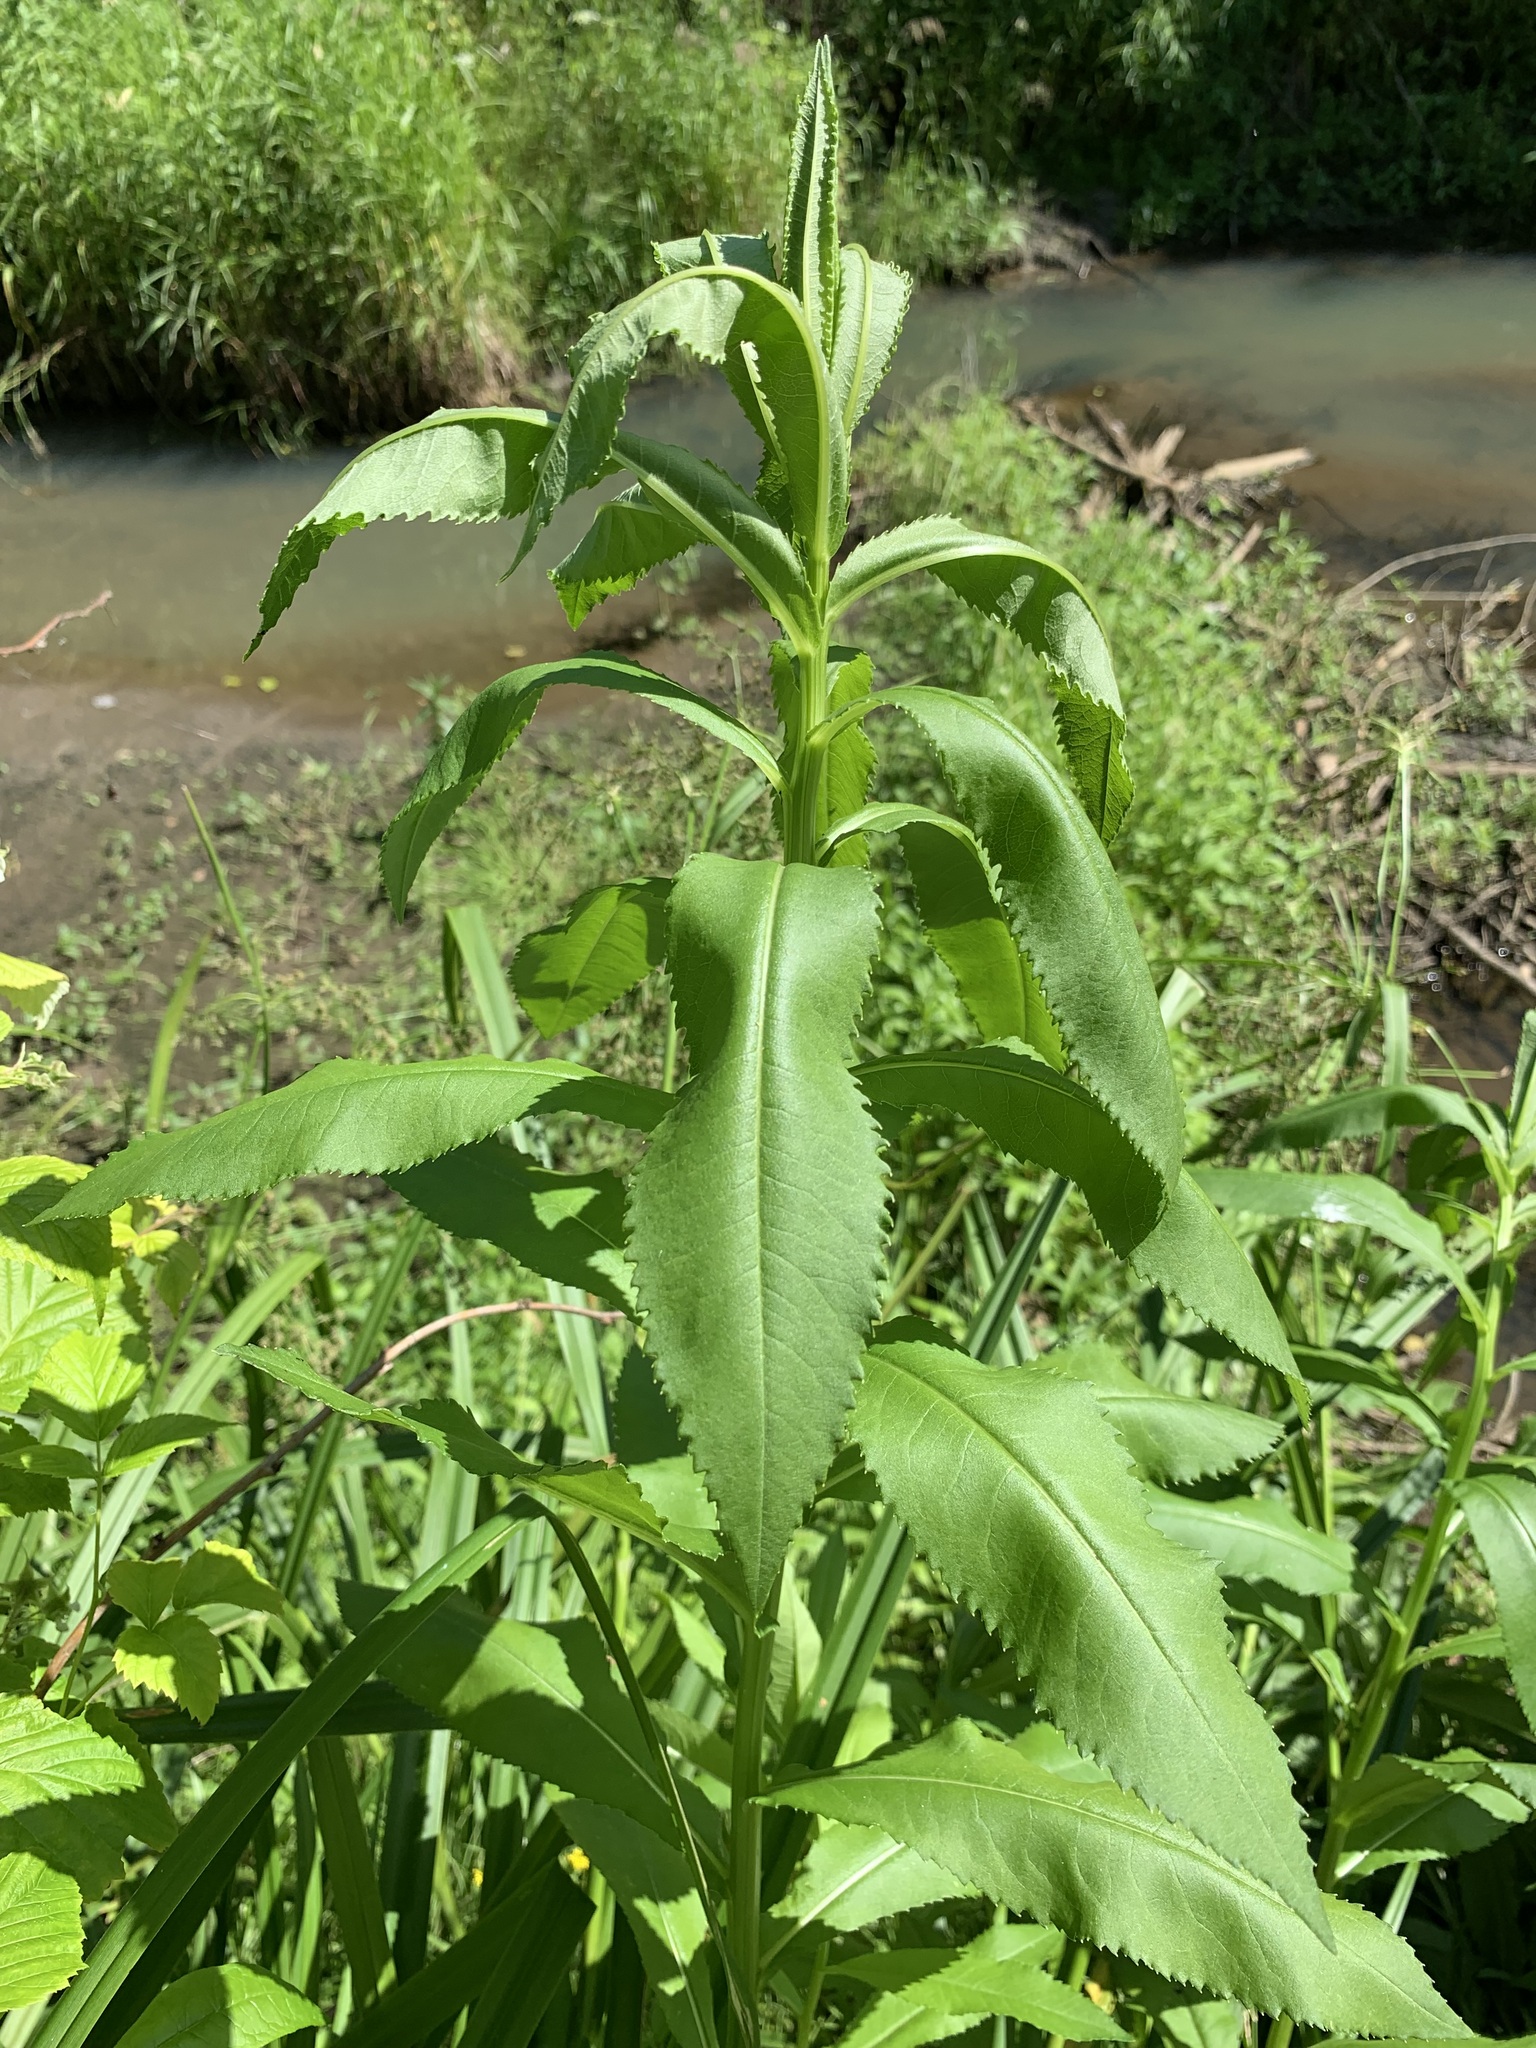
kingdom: Plantae
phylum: Tracheophyta
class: Magnoliopsida
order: Asterales
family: Asteraceae
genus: Senecio
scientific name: Senecio sarracenicus
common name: Broad-leaved ragwort
